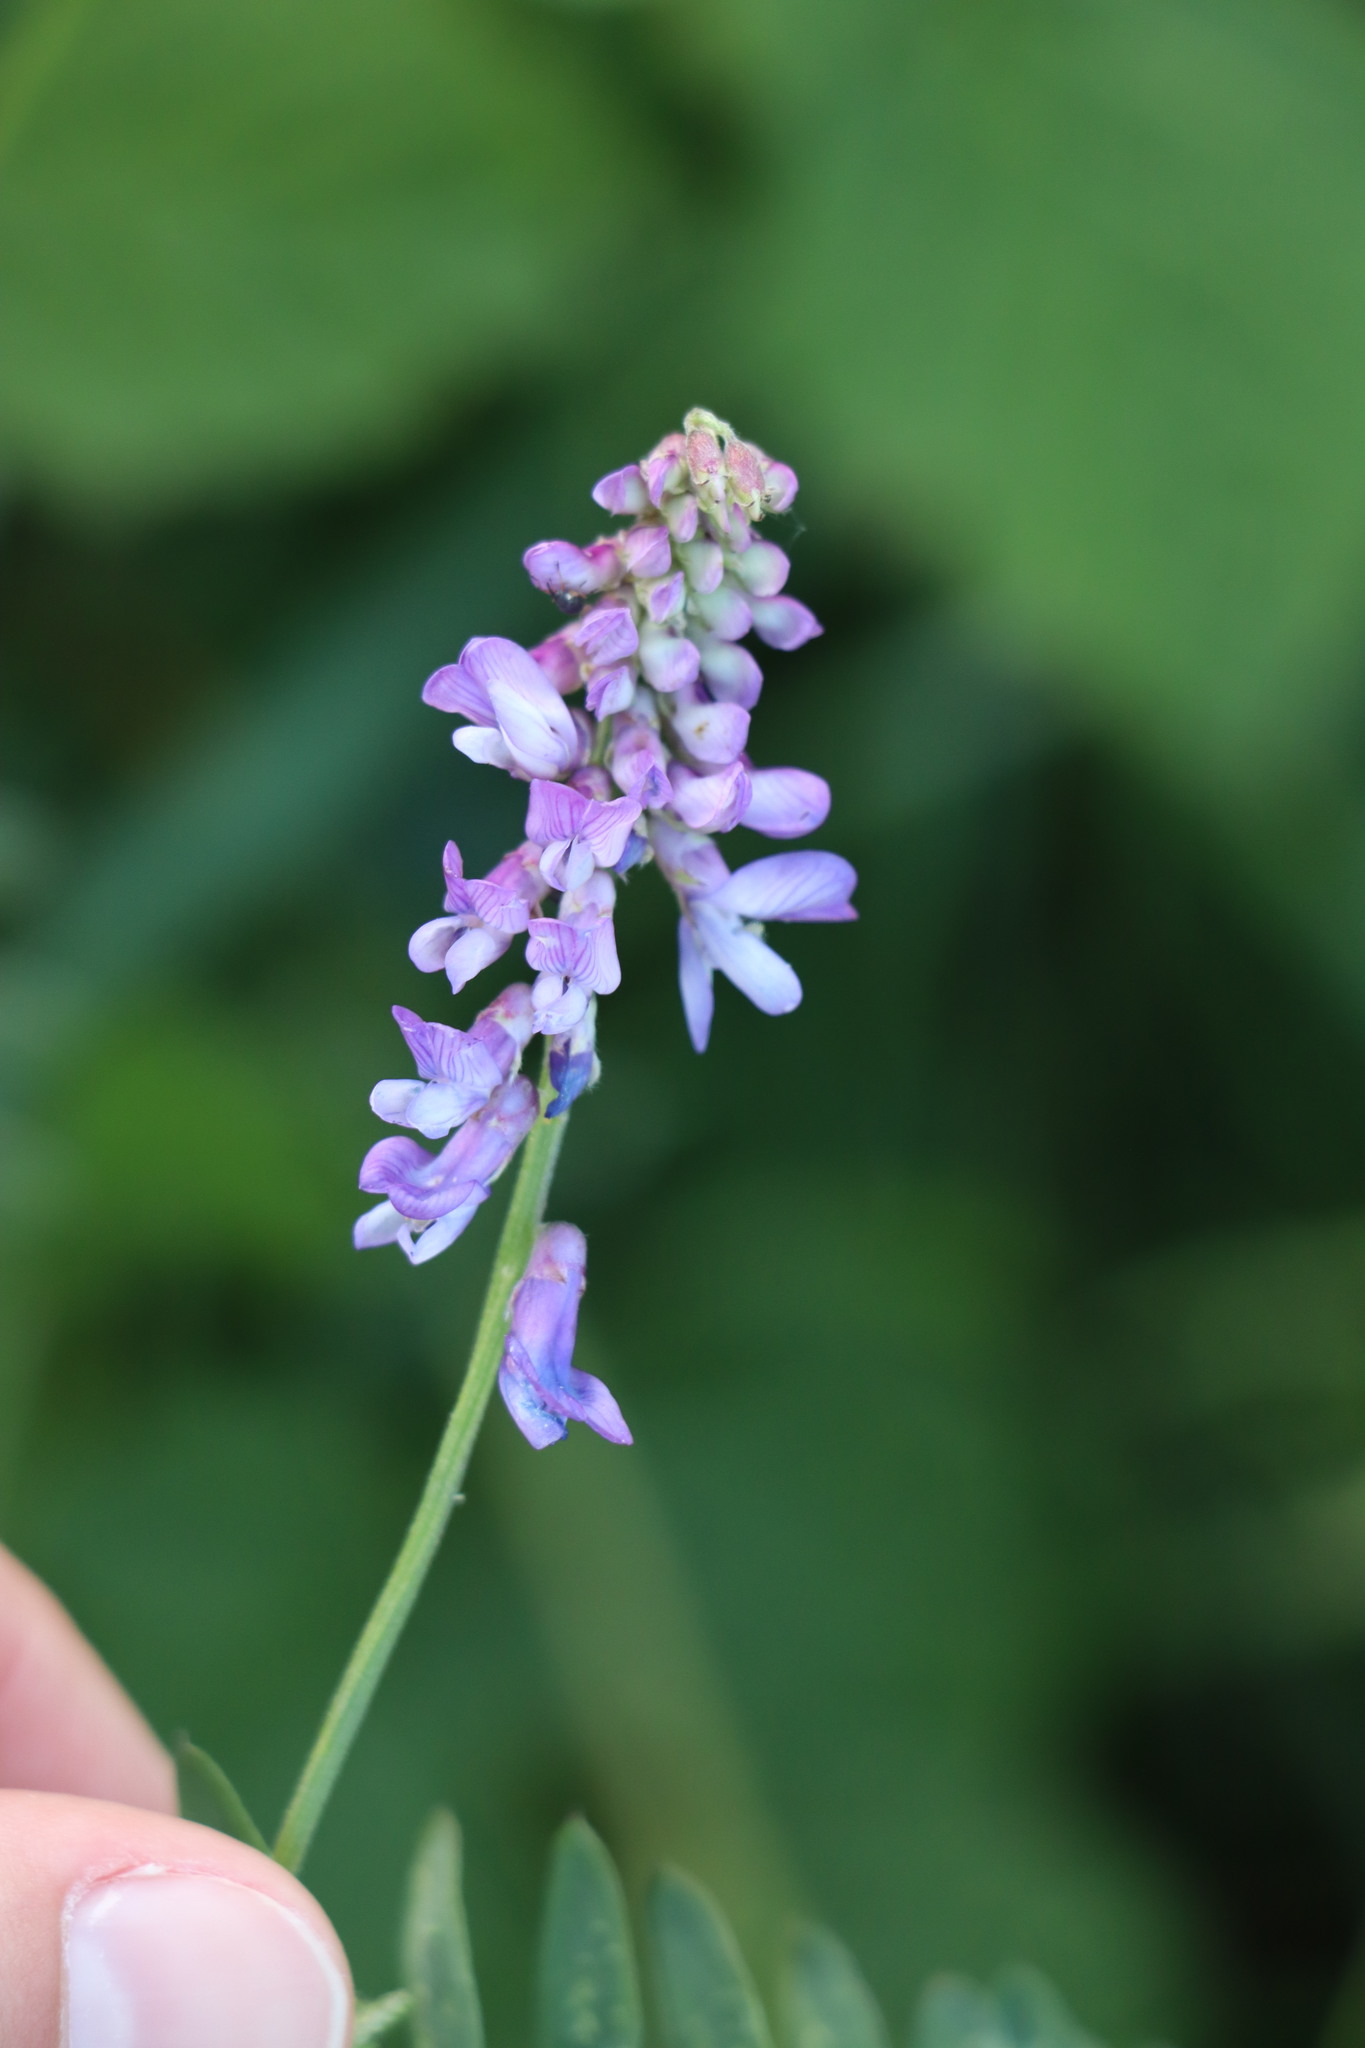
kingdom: Plantae
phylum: Tracheophyta
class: Magnoliopsida
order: Fabales
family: Fabaceae
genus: Vicia
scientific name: Vicia cracca
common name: Bird vetch
